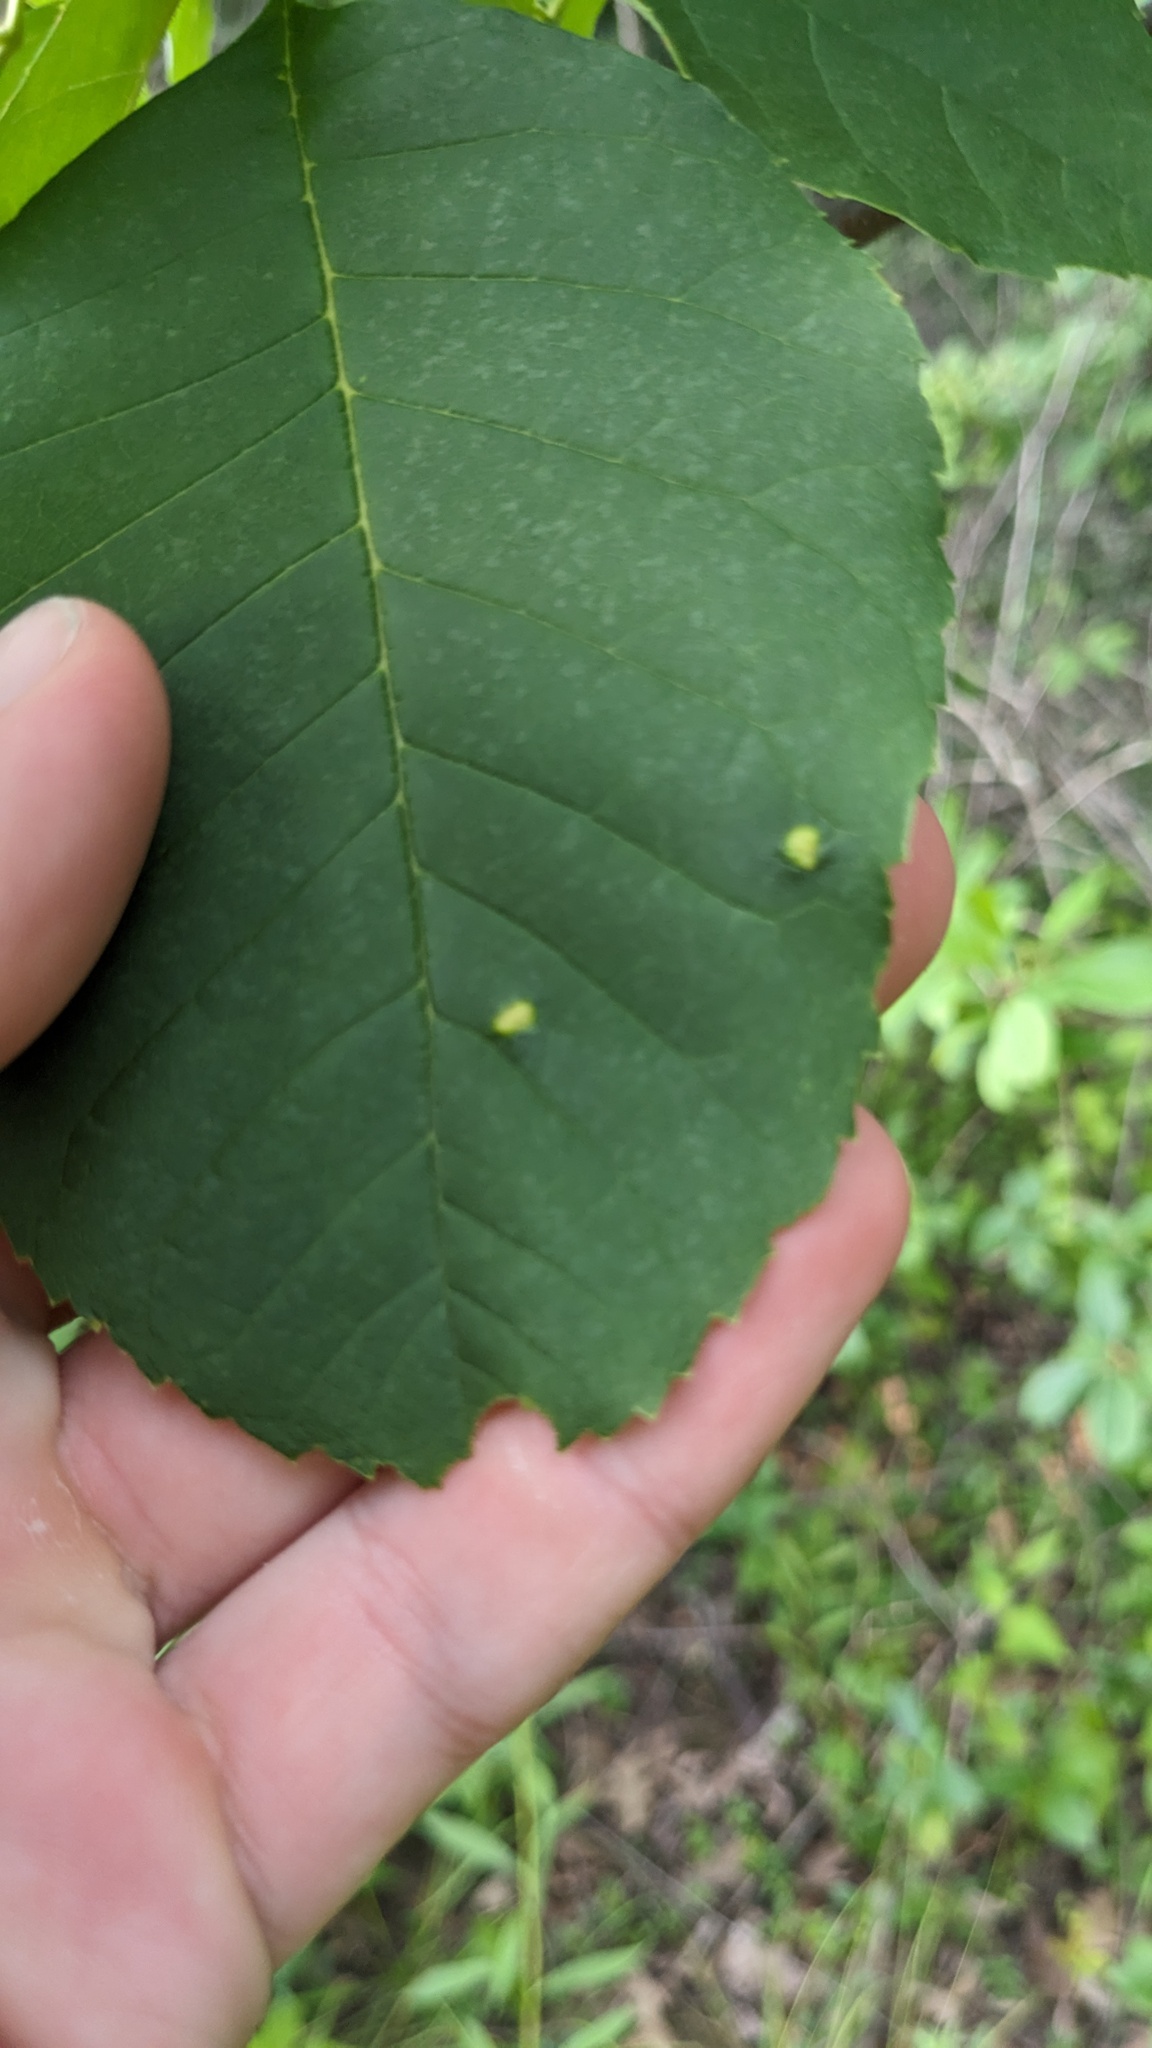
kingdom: Animalia
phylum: Arthropoda
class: Arachnida
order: Trombidiformes
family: Eriophyidae
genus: Aceria
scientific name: Aceria fraxinicola
